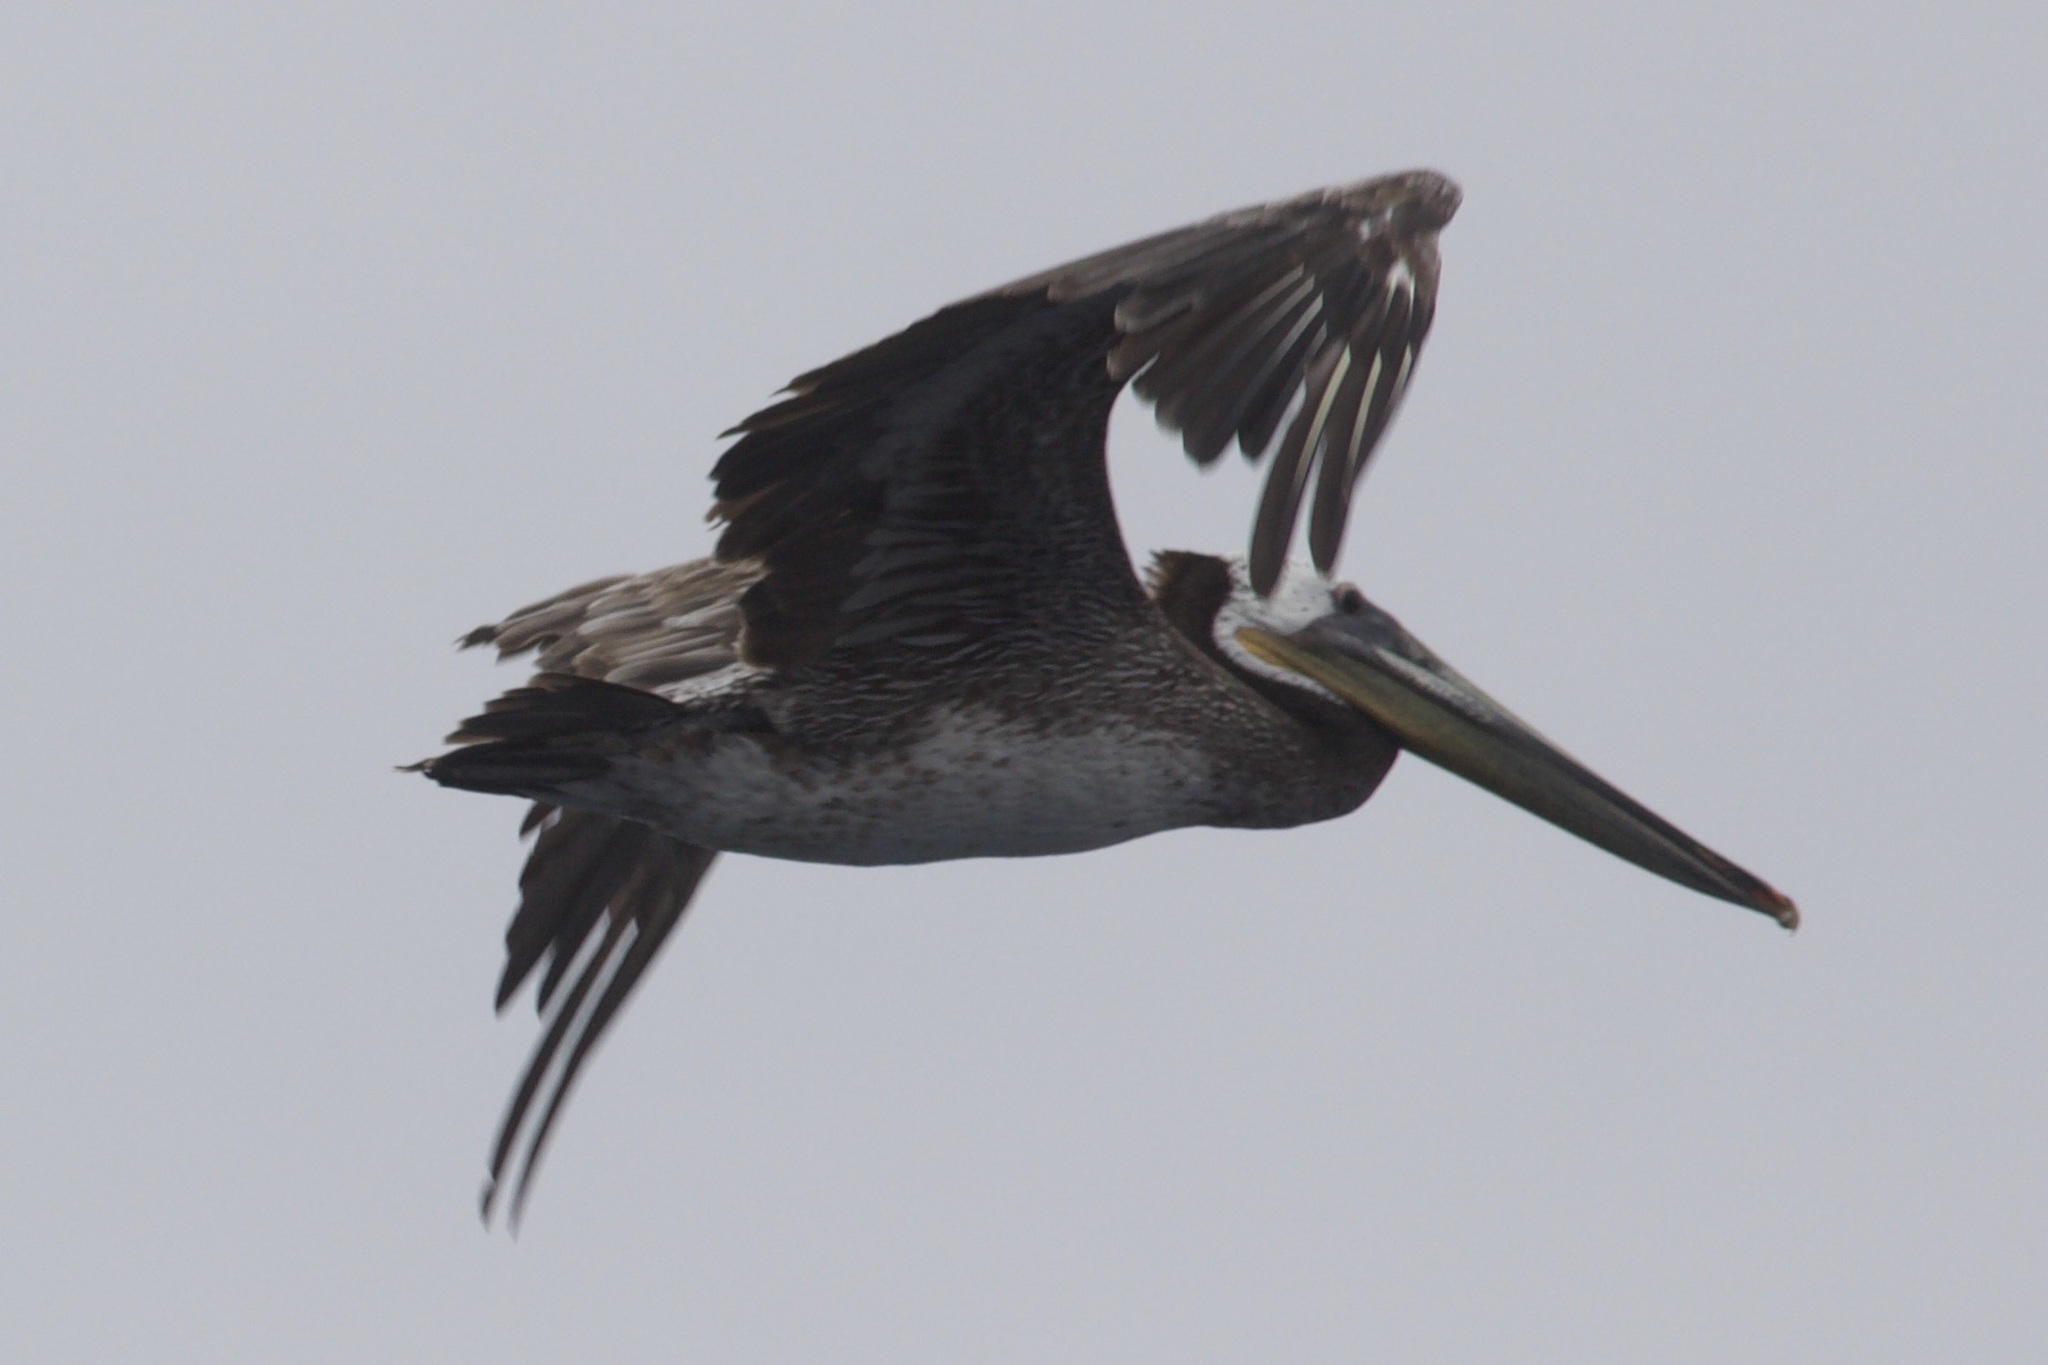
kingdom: Animalia
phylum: Chordata
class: Aves
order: Pelecaniformes
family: Pelecanidae
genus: Pelecanus
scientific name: Pelecanus occidentalis
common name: Brown pelican
